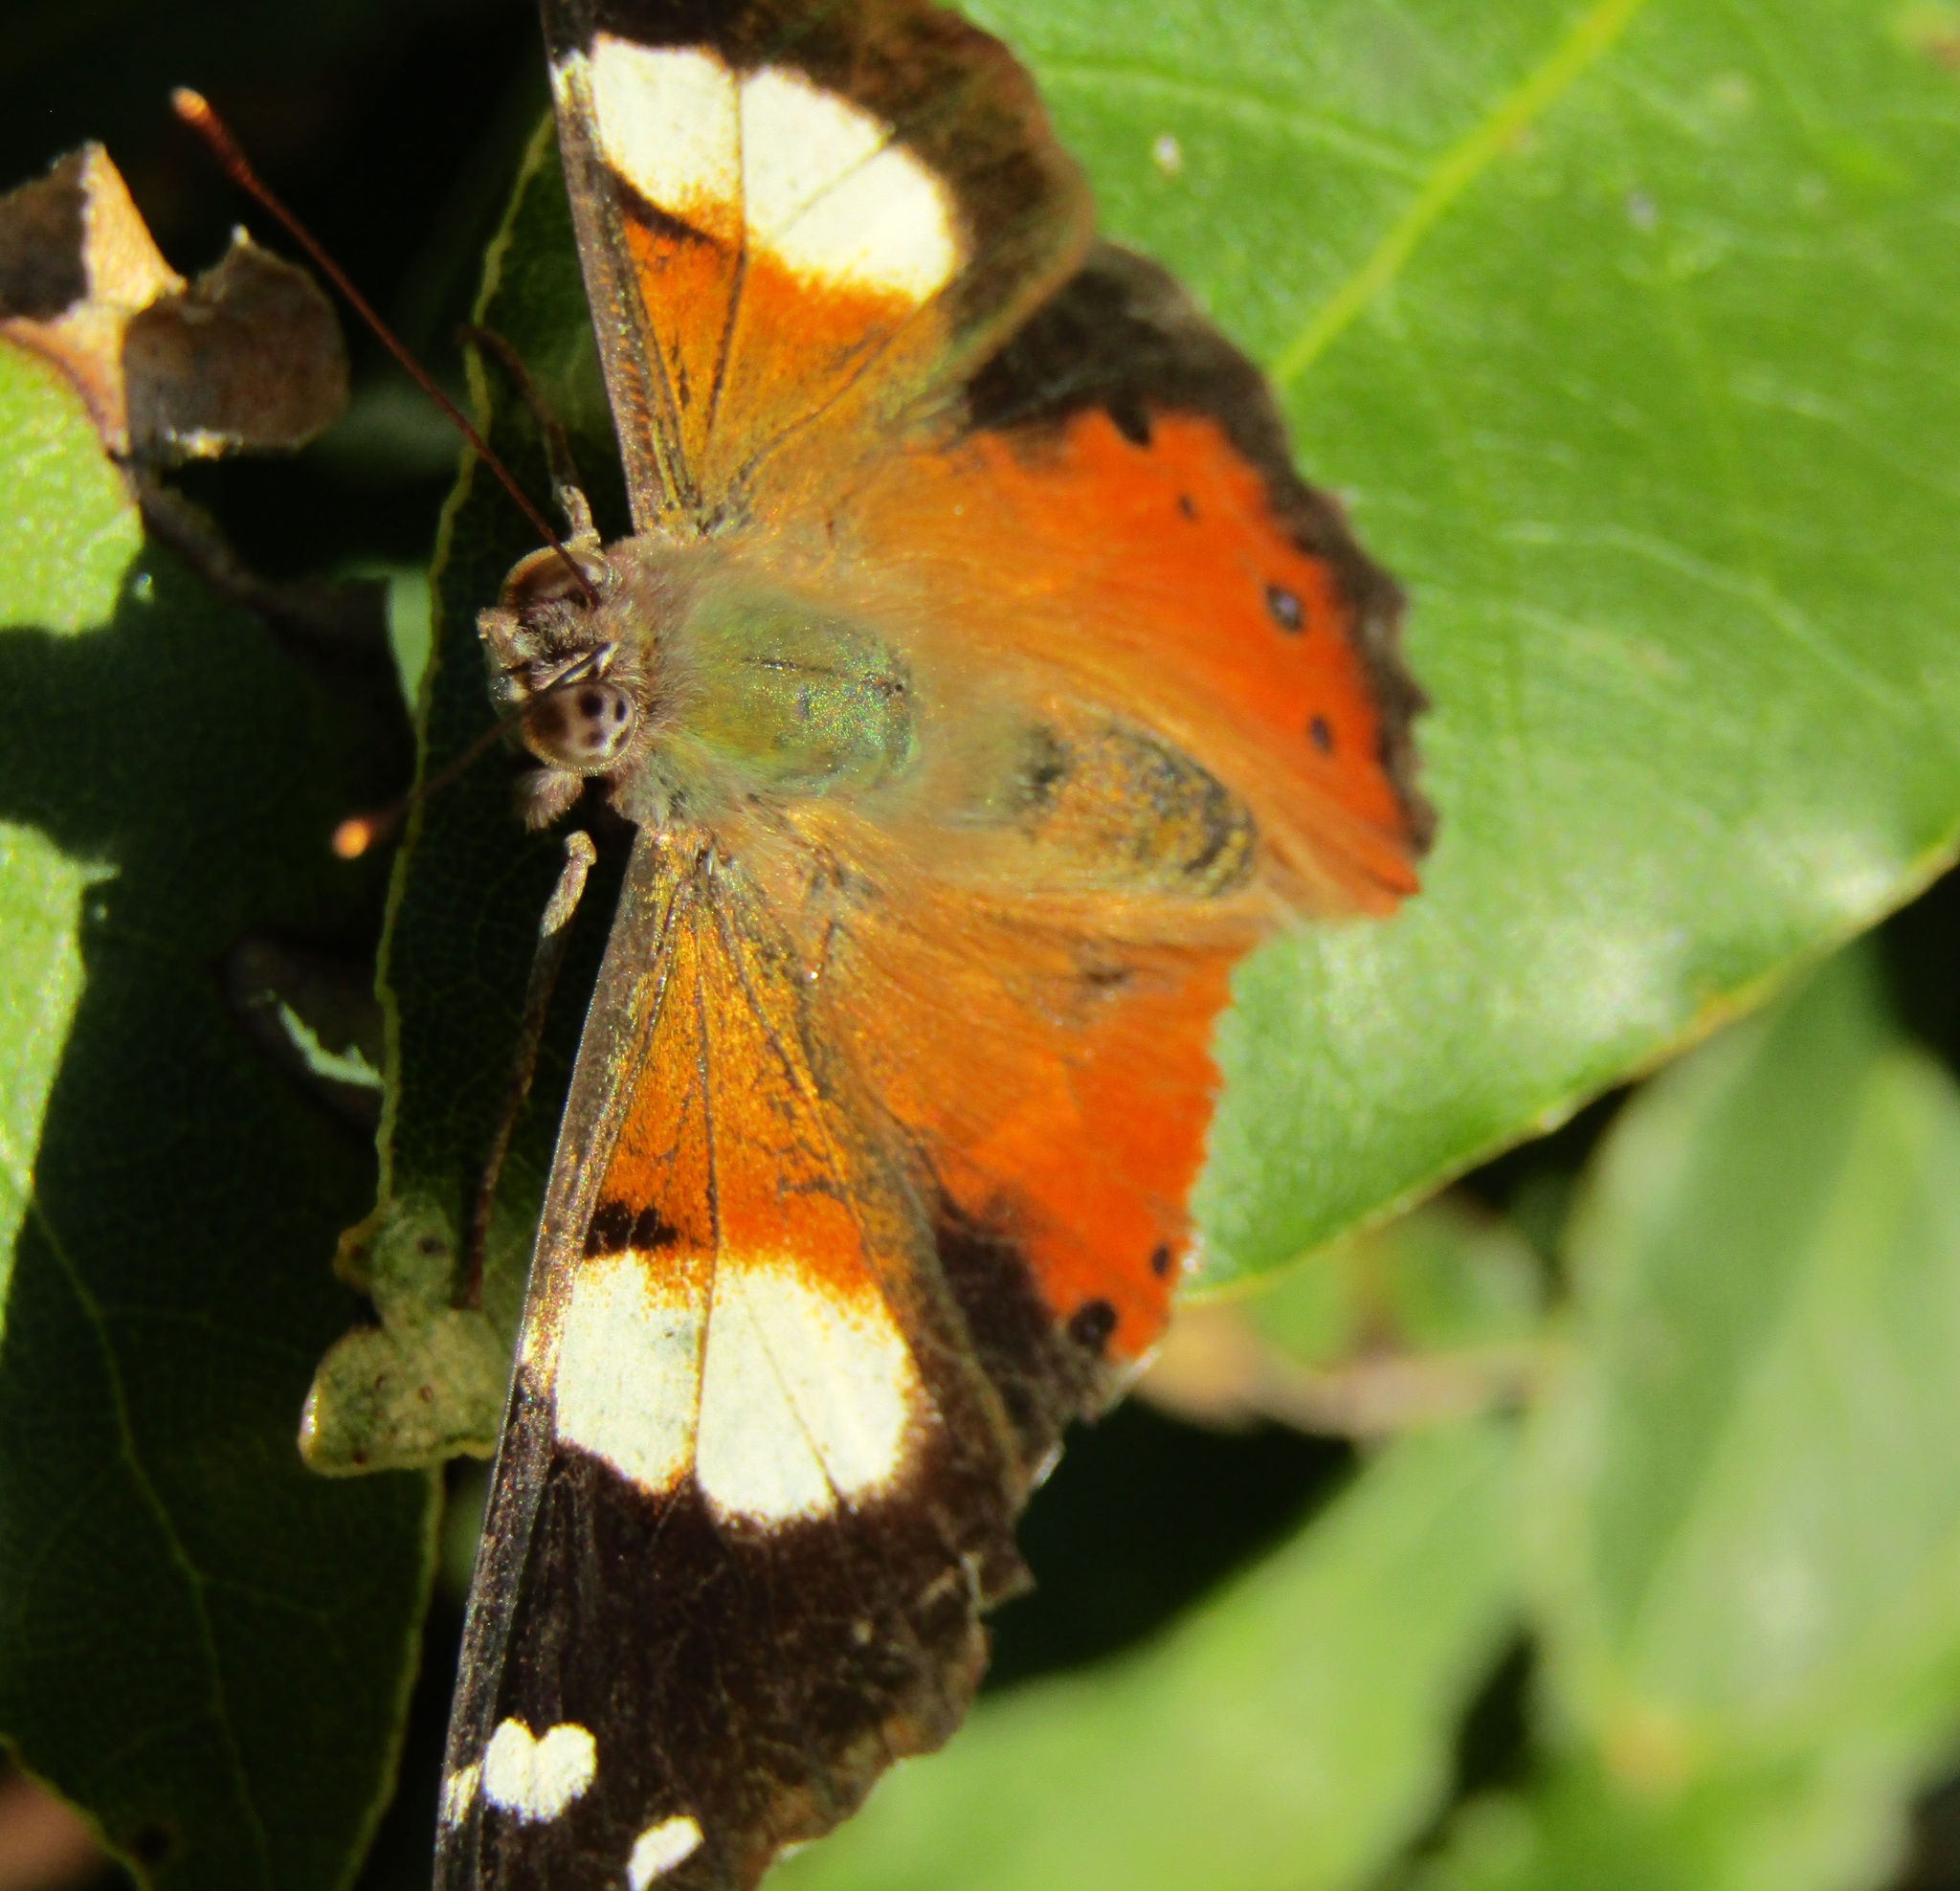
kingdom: Animalia
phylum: Arthropoda
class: Insecta
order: Lepidoptera
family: Nymphalidae
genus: Vanessa
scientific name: Vanessa itea
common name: Yellow admiral
